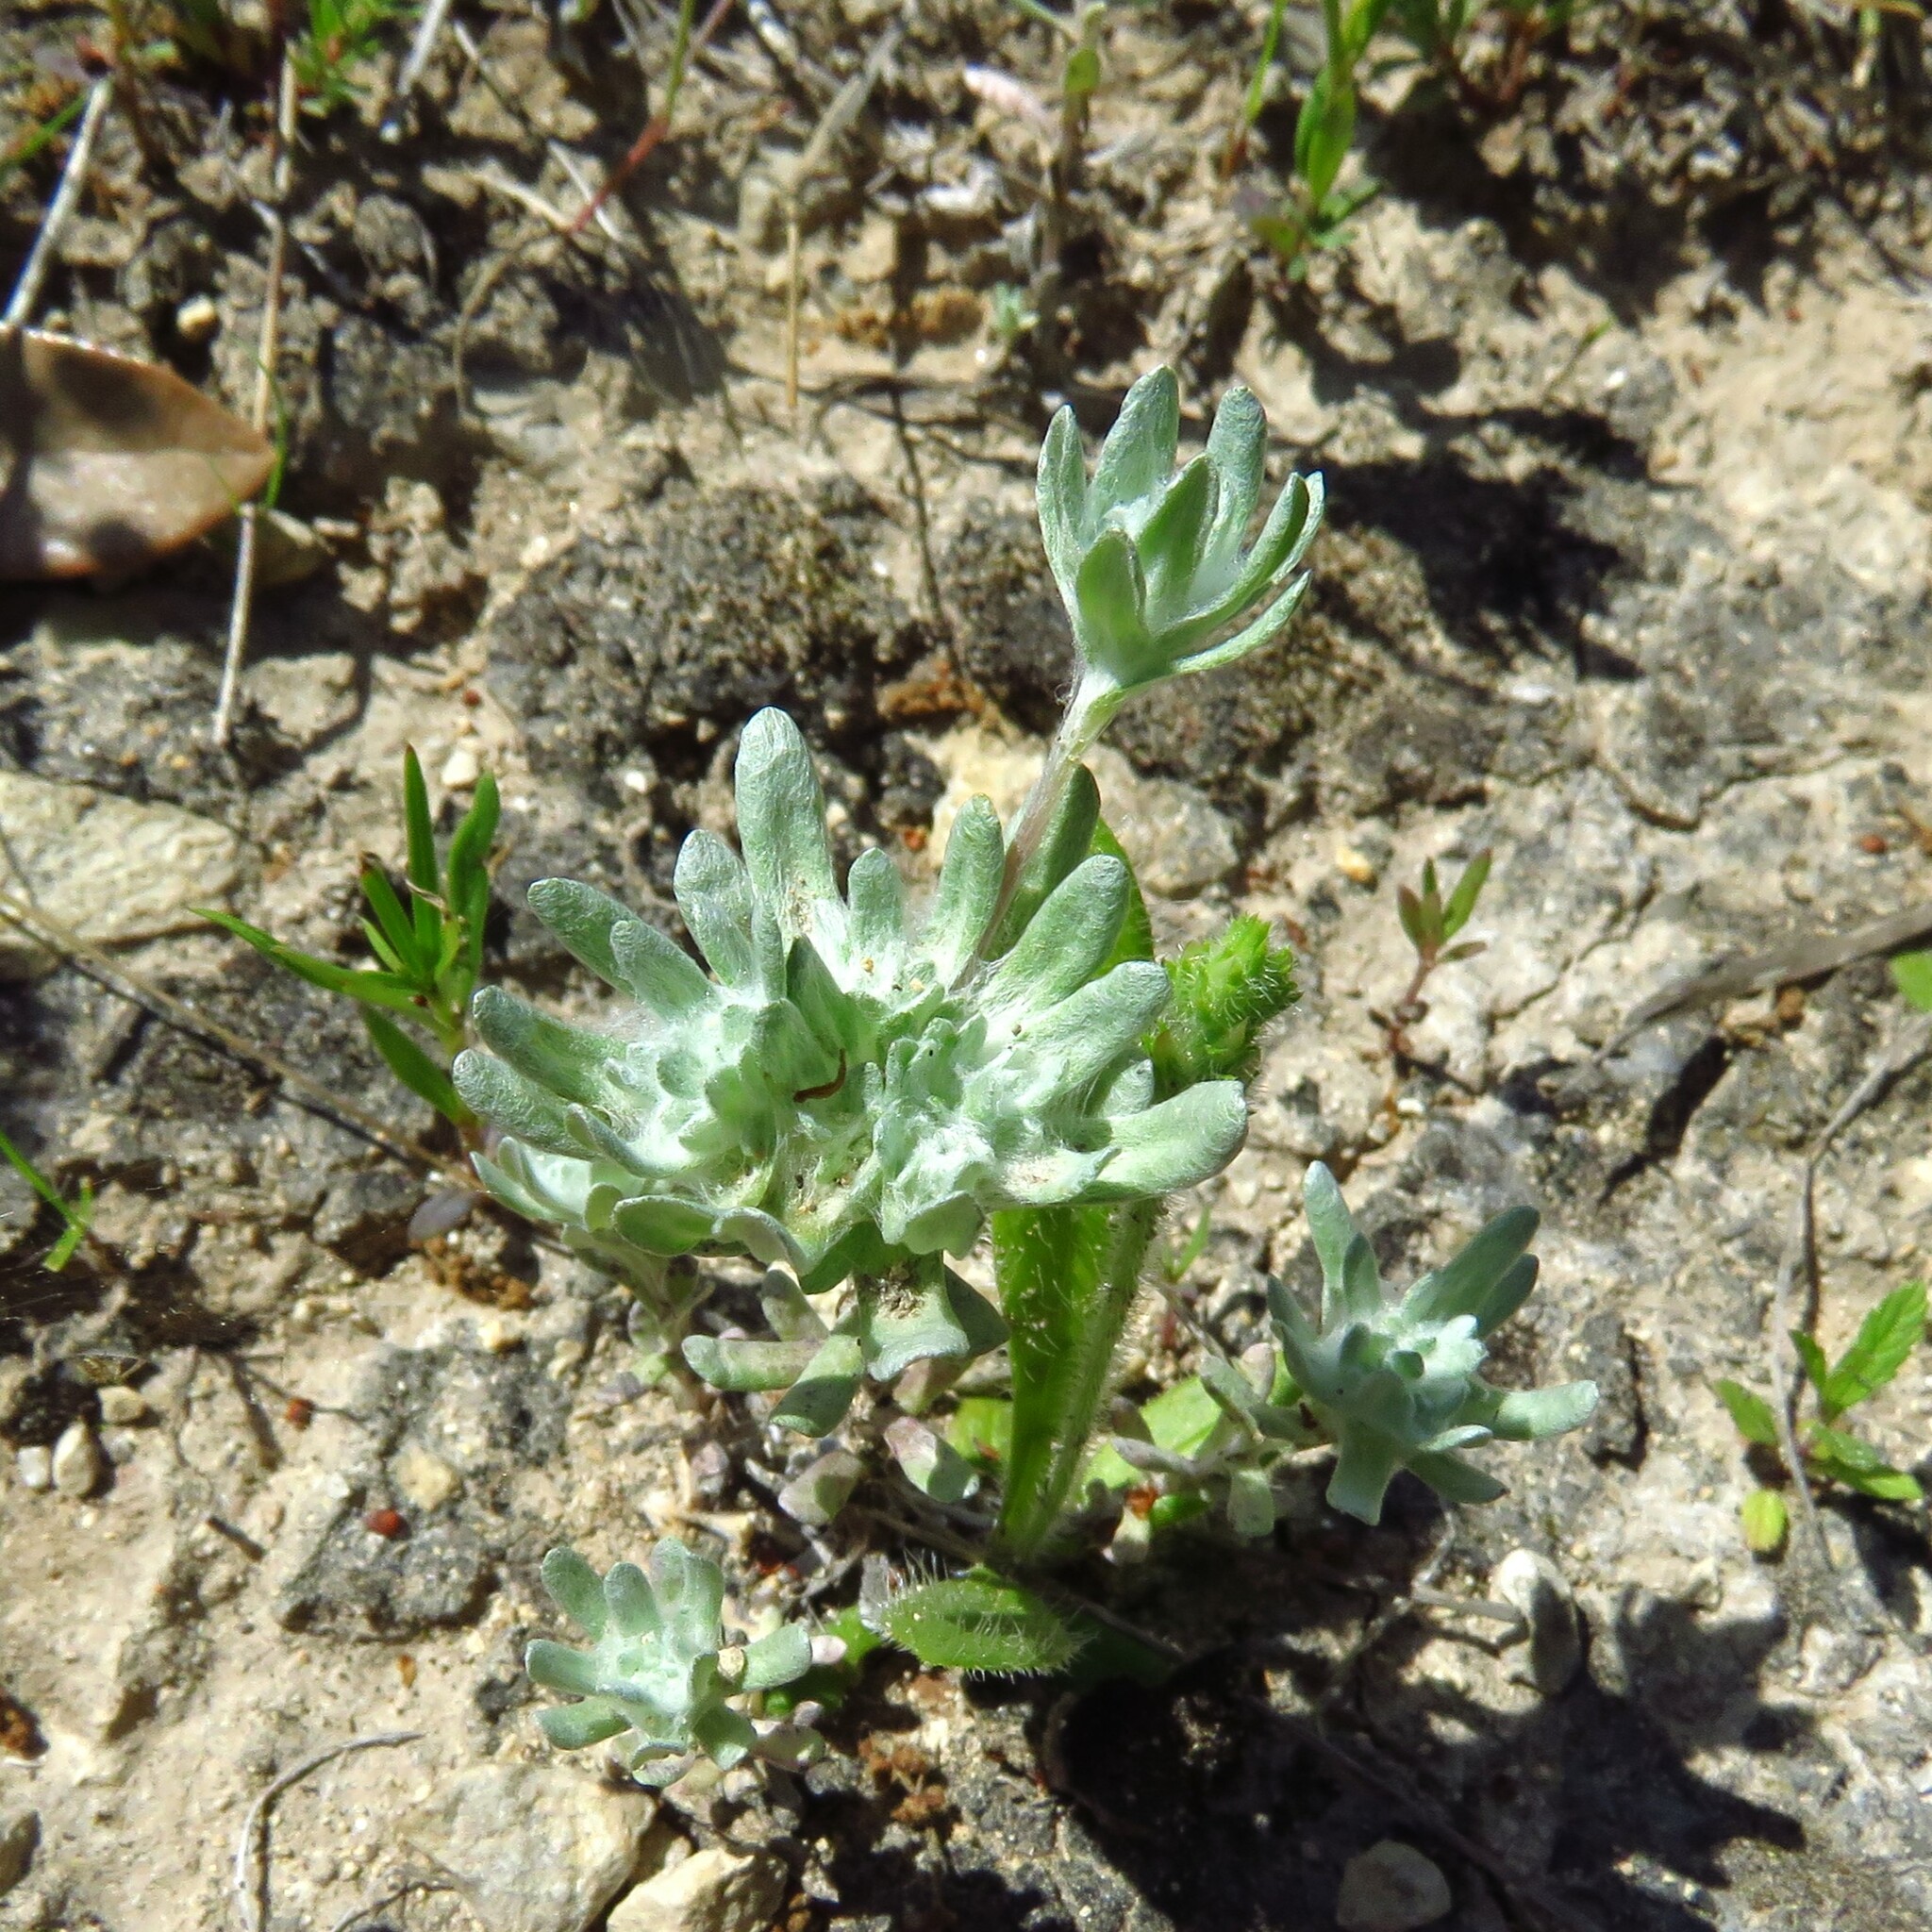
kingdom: Plantae
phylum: Tracheophyta
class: Magnoliopsida
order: Asterales
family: Asteraceae
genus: Diaperia
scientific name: Diaperia prolifera
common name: Big-head rabbit-tobacco
